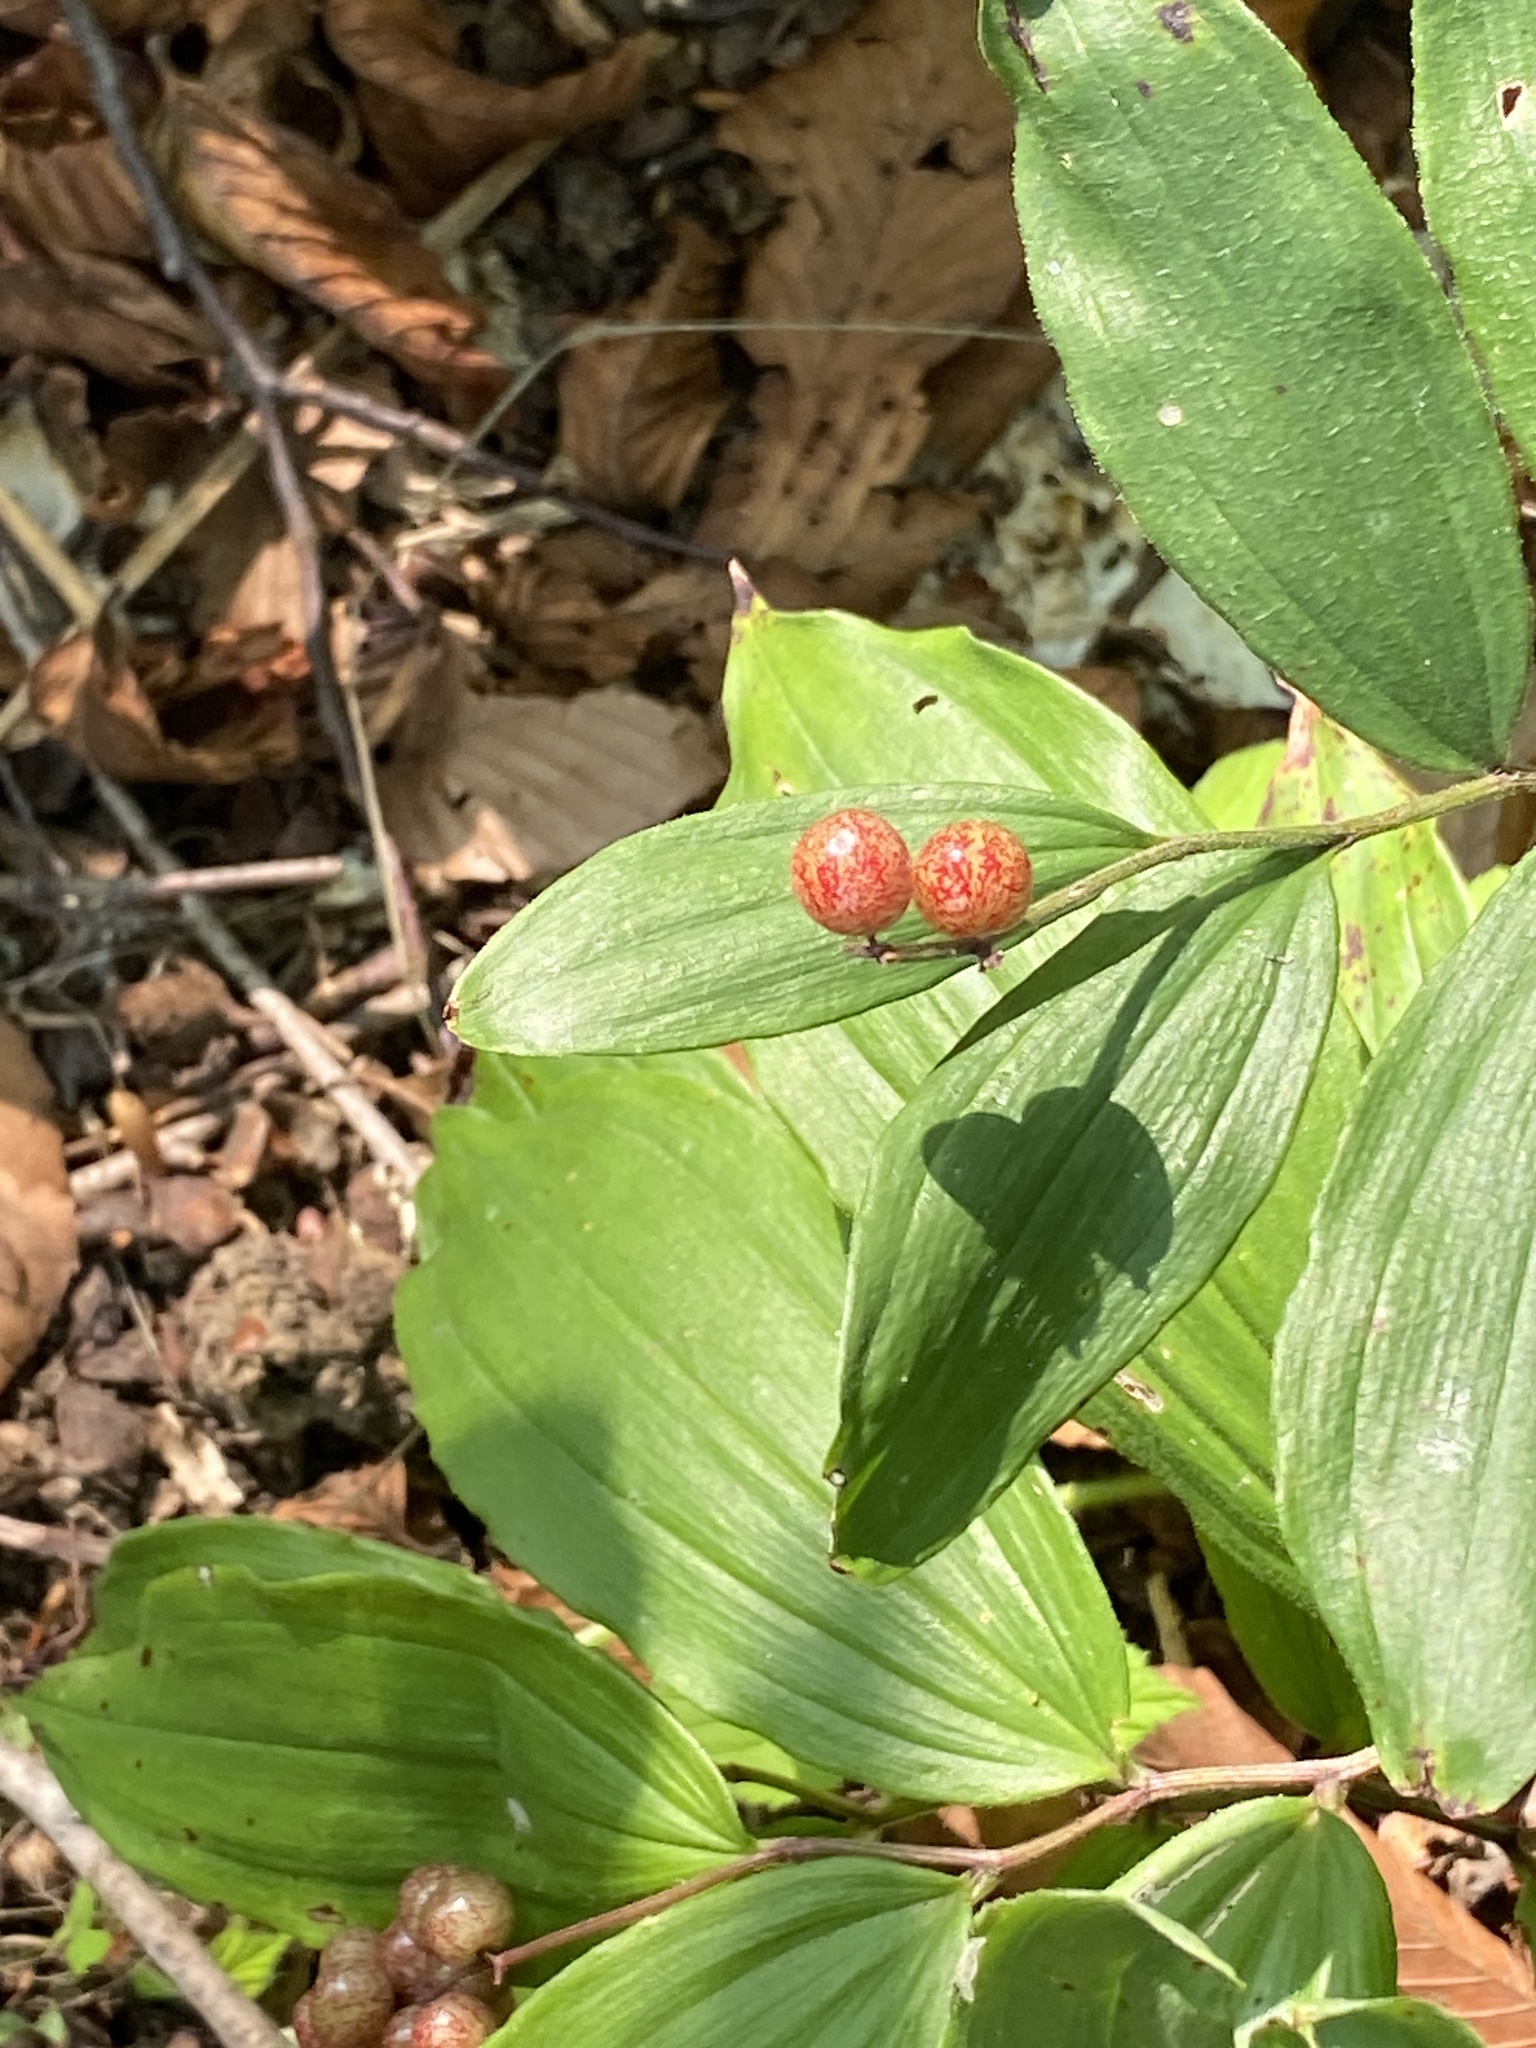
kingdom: Plantae
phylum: Tracheophyta
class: Liliopsida
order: Asparagales
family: Asparagaceae
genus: Maianthemum
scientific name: Maianthemum racemosum
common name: False spikenard
